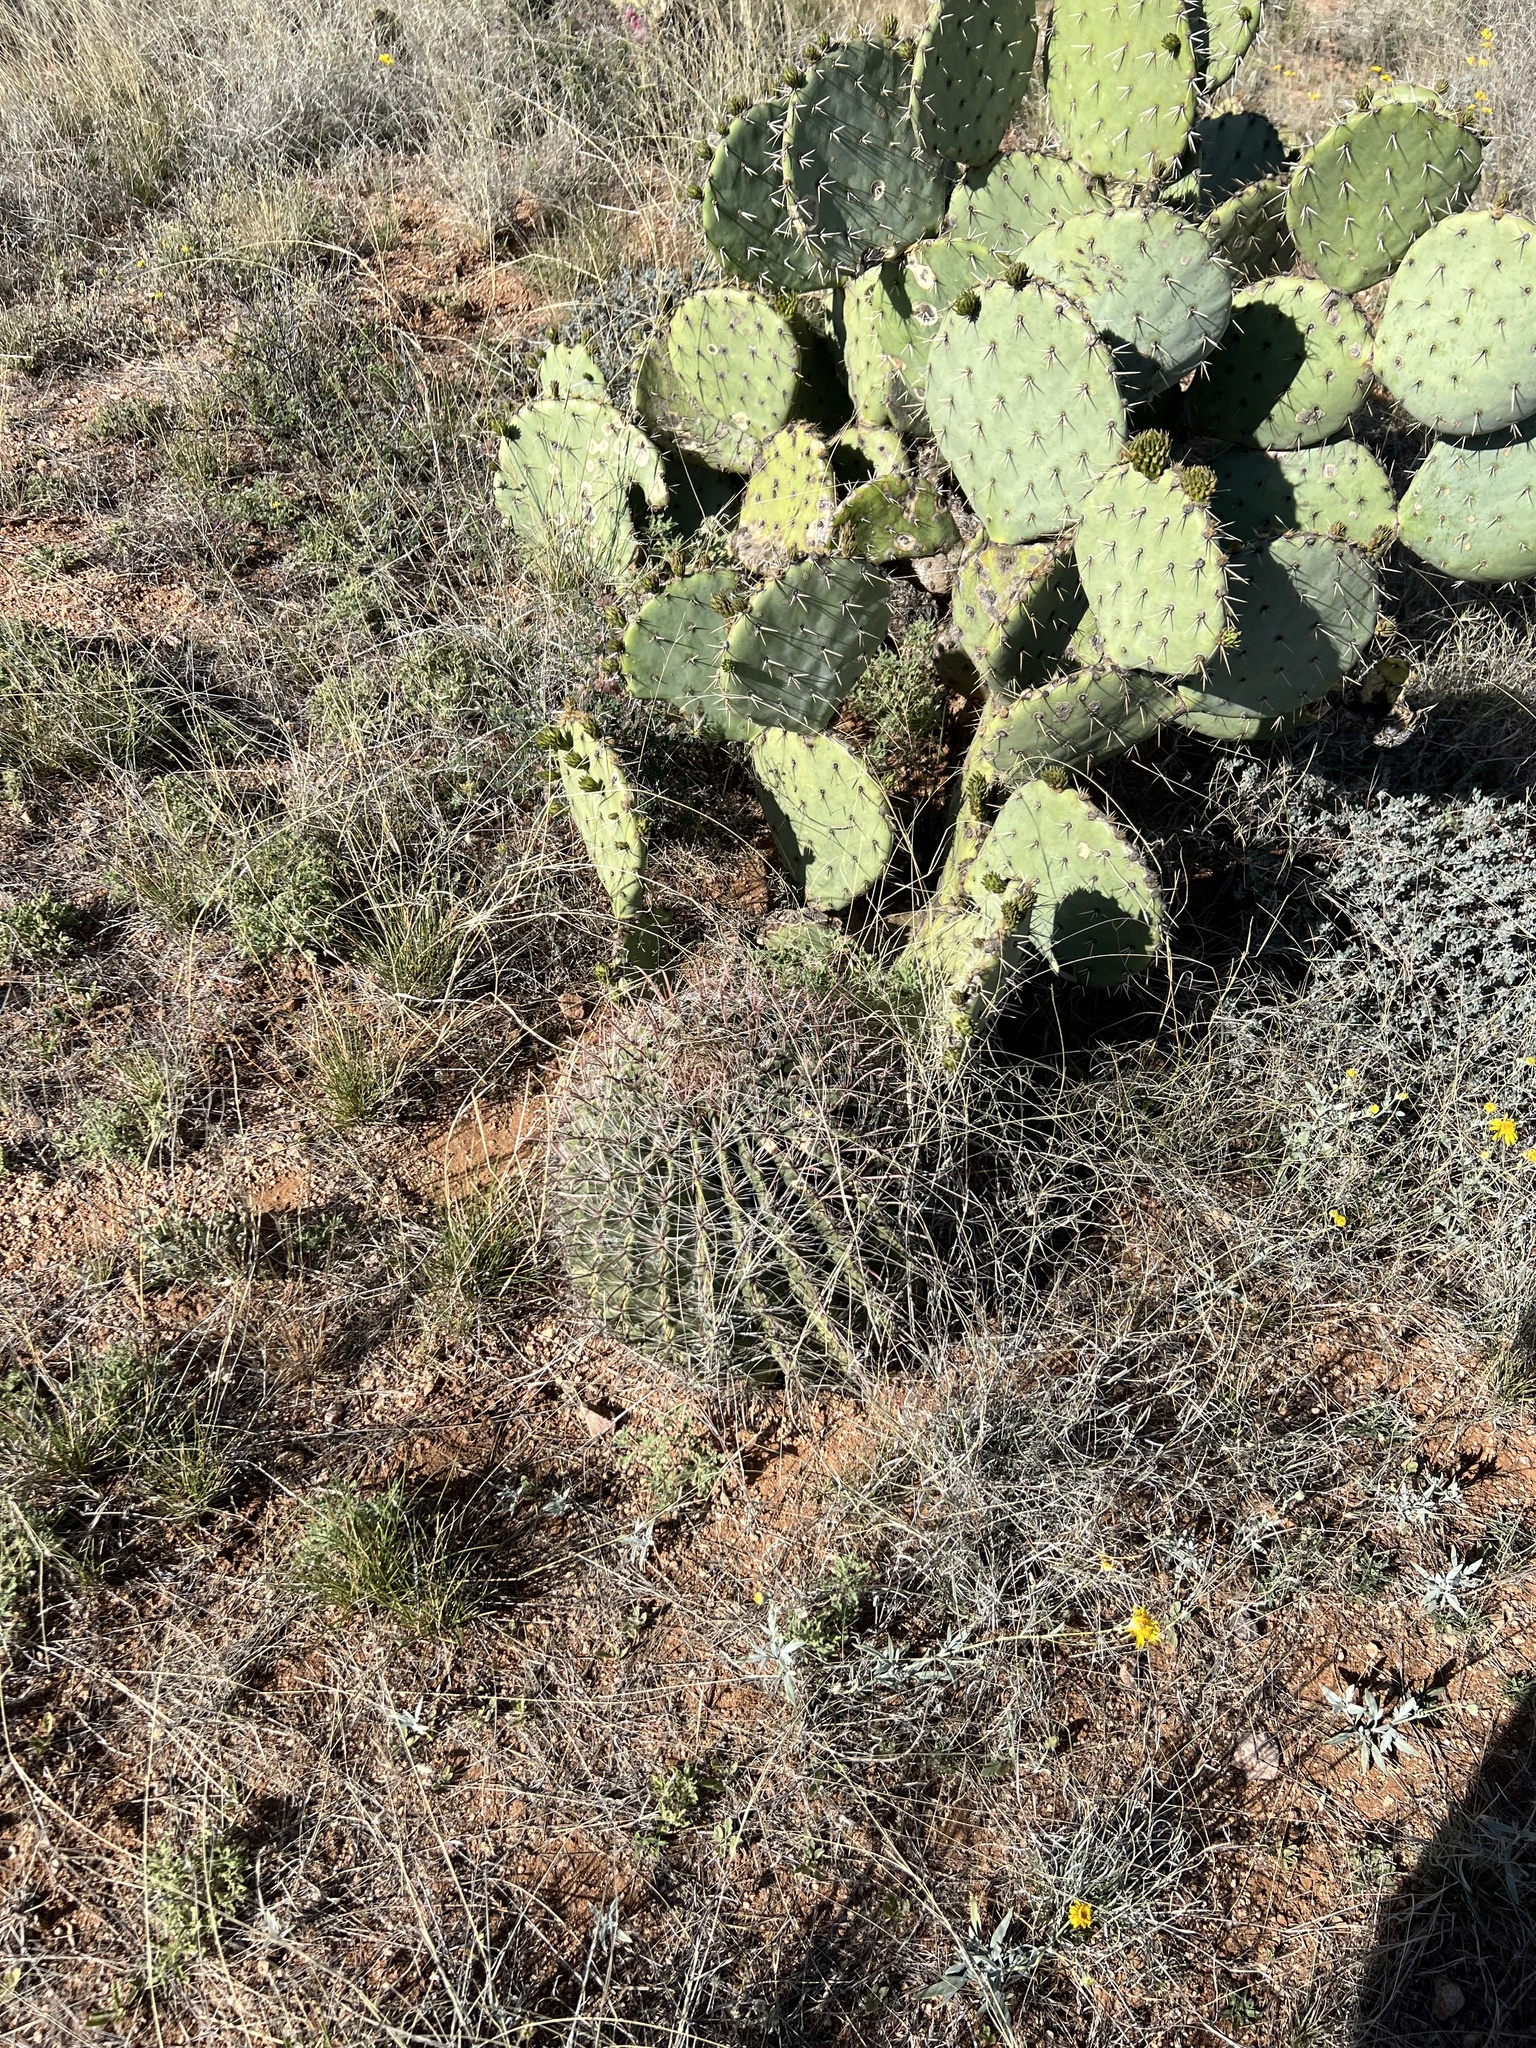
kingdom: Plantae
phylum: Tracheophyta
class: Magnoliopsida
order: Caryophyllales
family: Cactaceae
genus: Ferocactus
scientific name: Ferocactus wislizeni
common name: Candy barrel cactus
